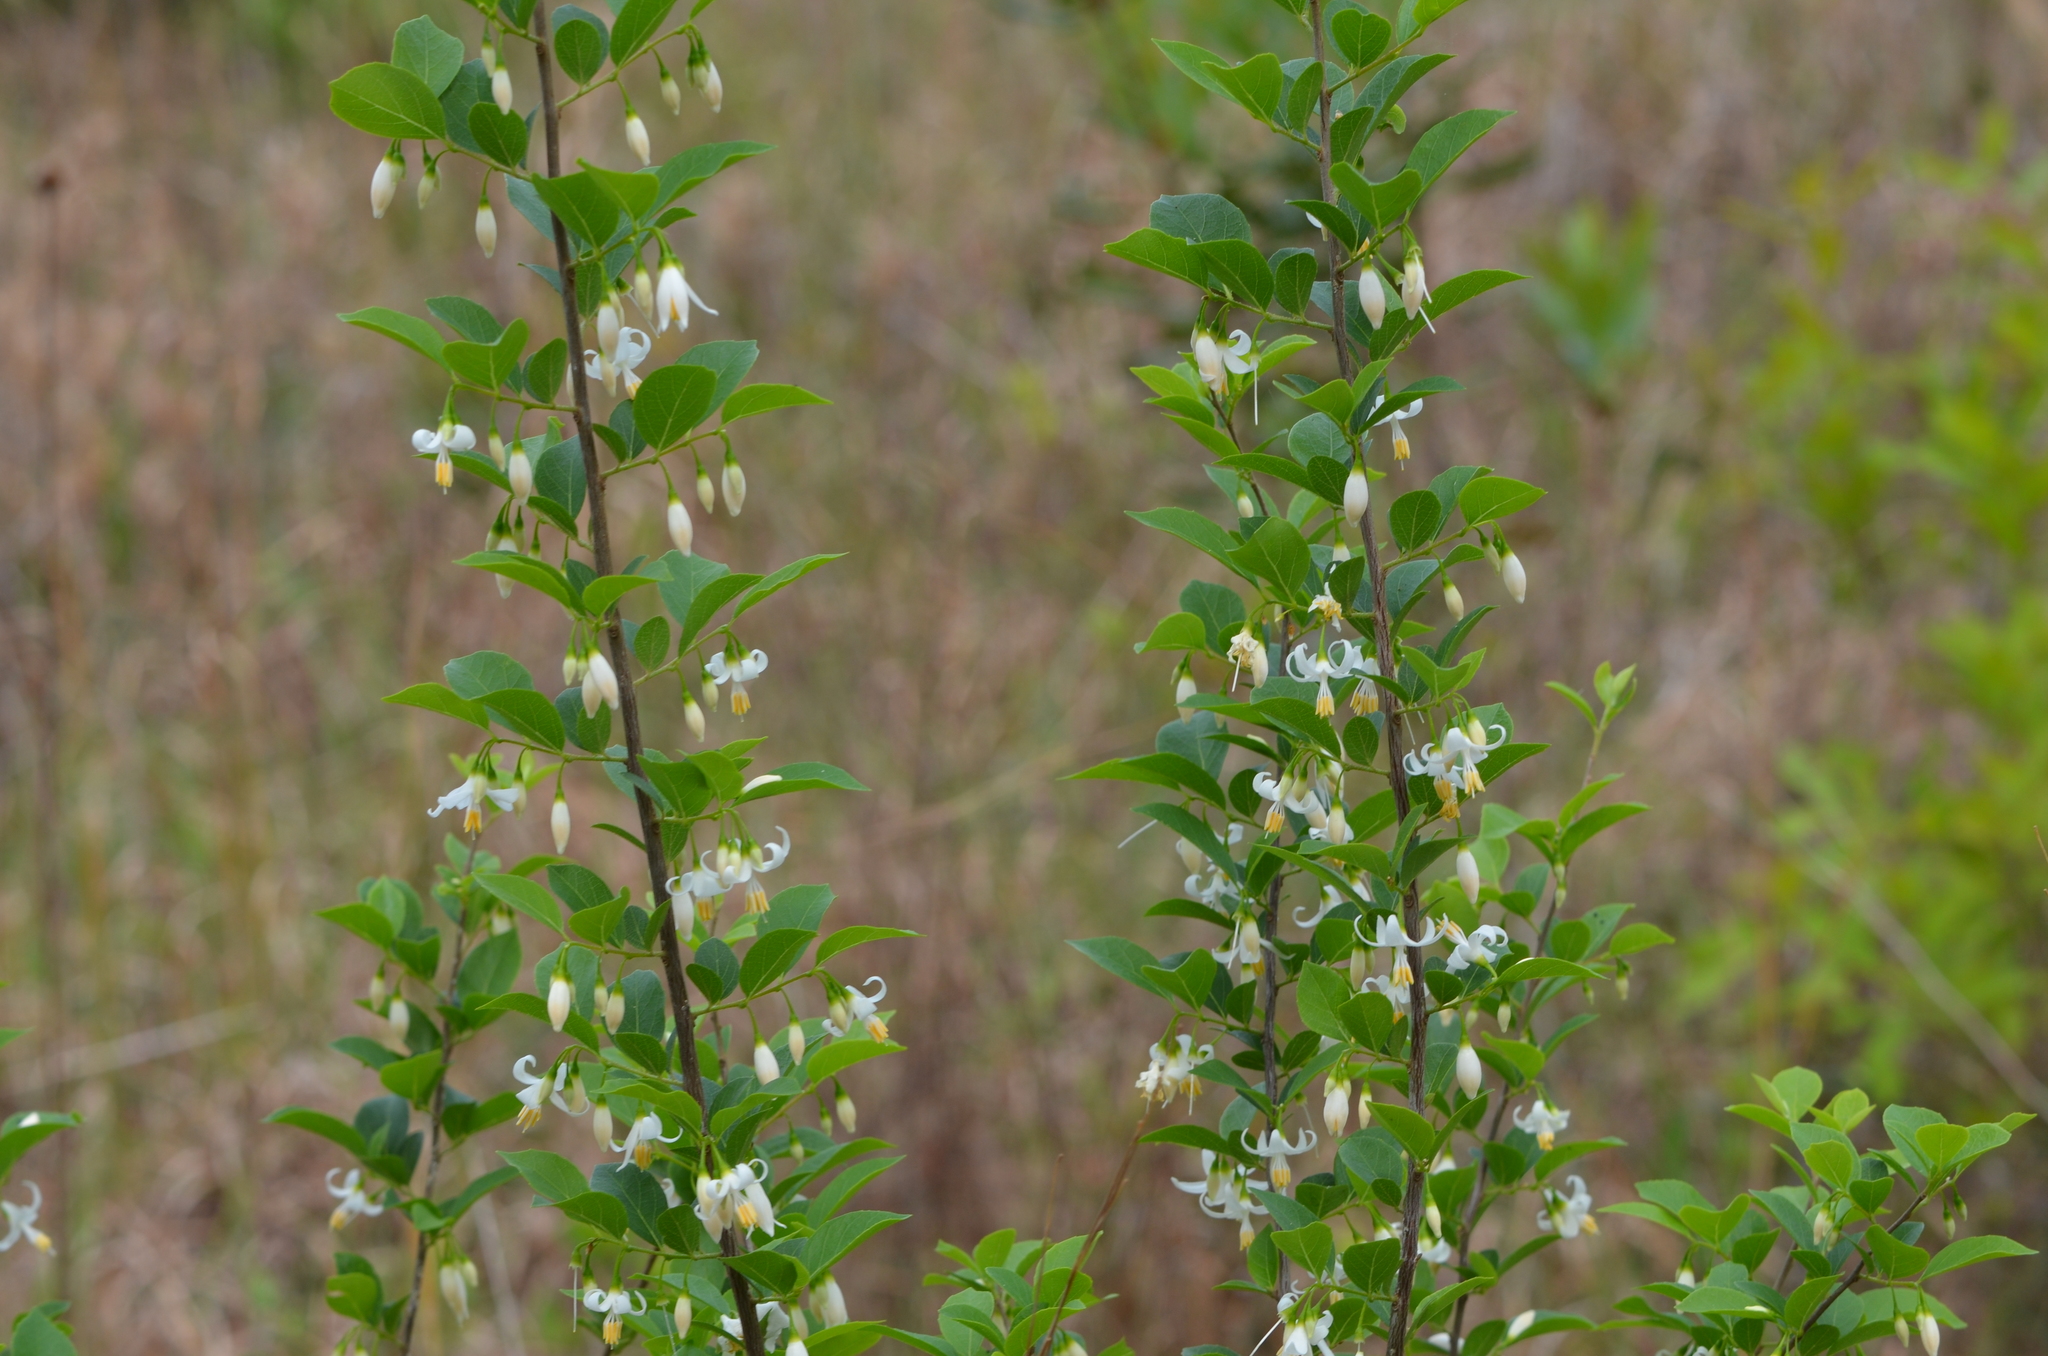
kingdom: Plantae
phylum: Tracheophyta
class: Magnoliopsida
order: Ericales
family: Styracaceae
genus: Styrax
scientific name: Styrax americanus
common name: American snowbell
